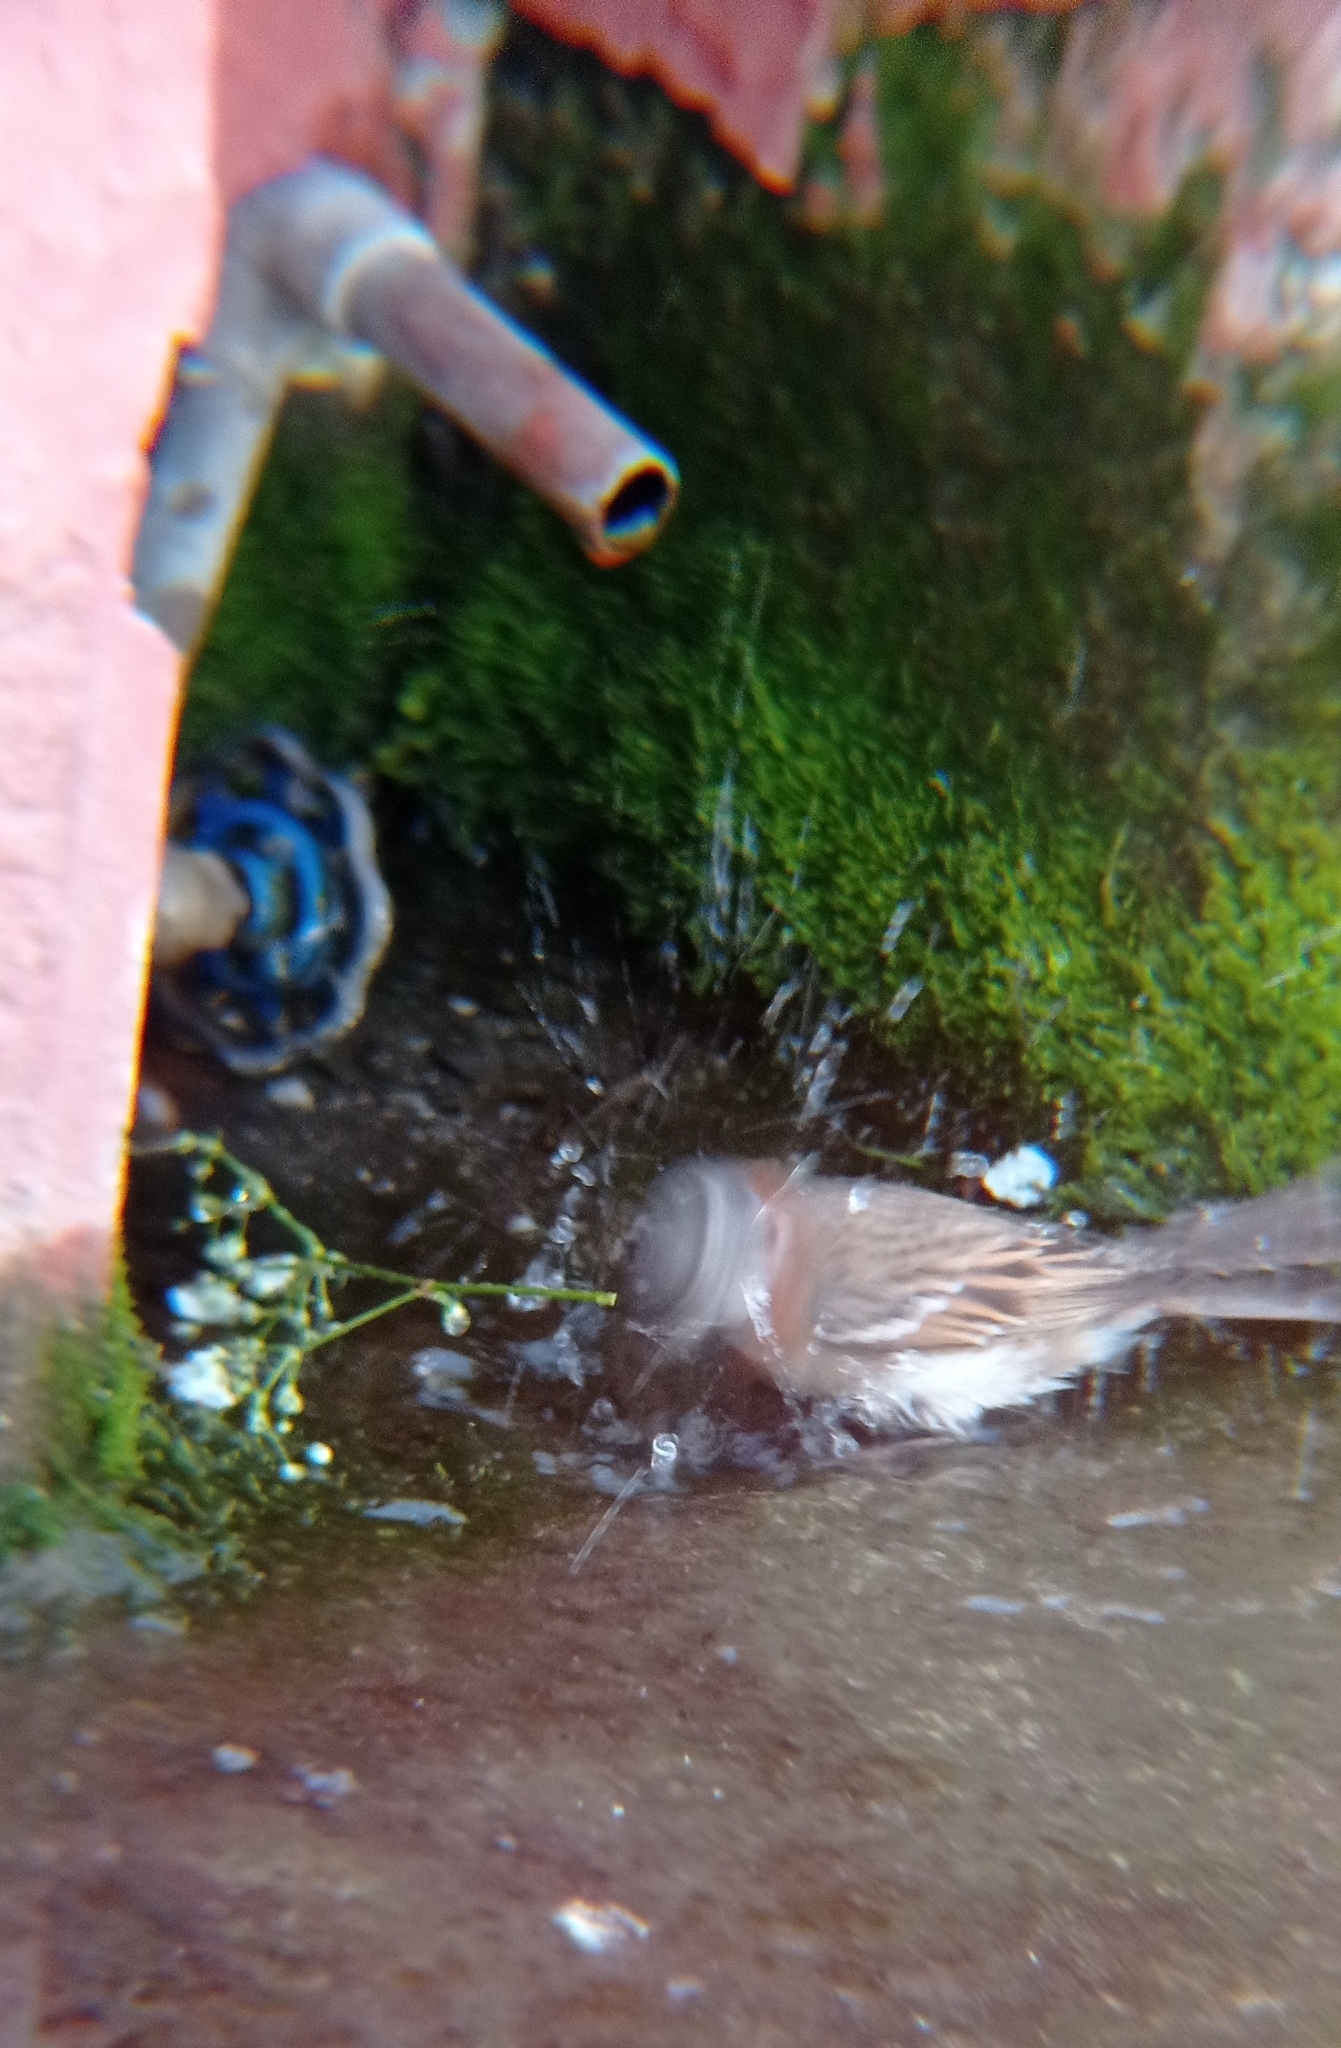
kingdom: Animalia
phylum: Chordata
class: Aves
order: Passeriformes
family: Passerellidae
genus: Zonotrichia
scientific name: Zonotrichia capensis
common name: Rufous-collared sparrow
